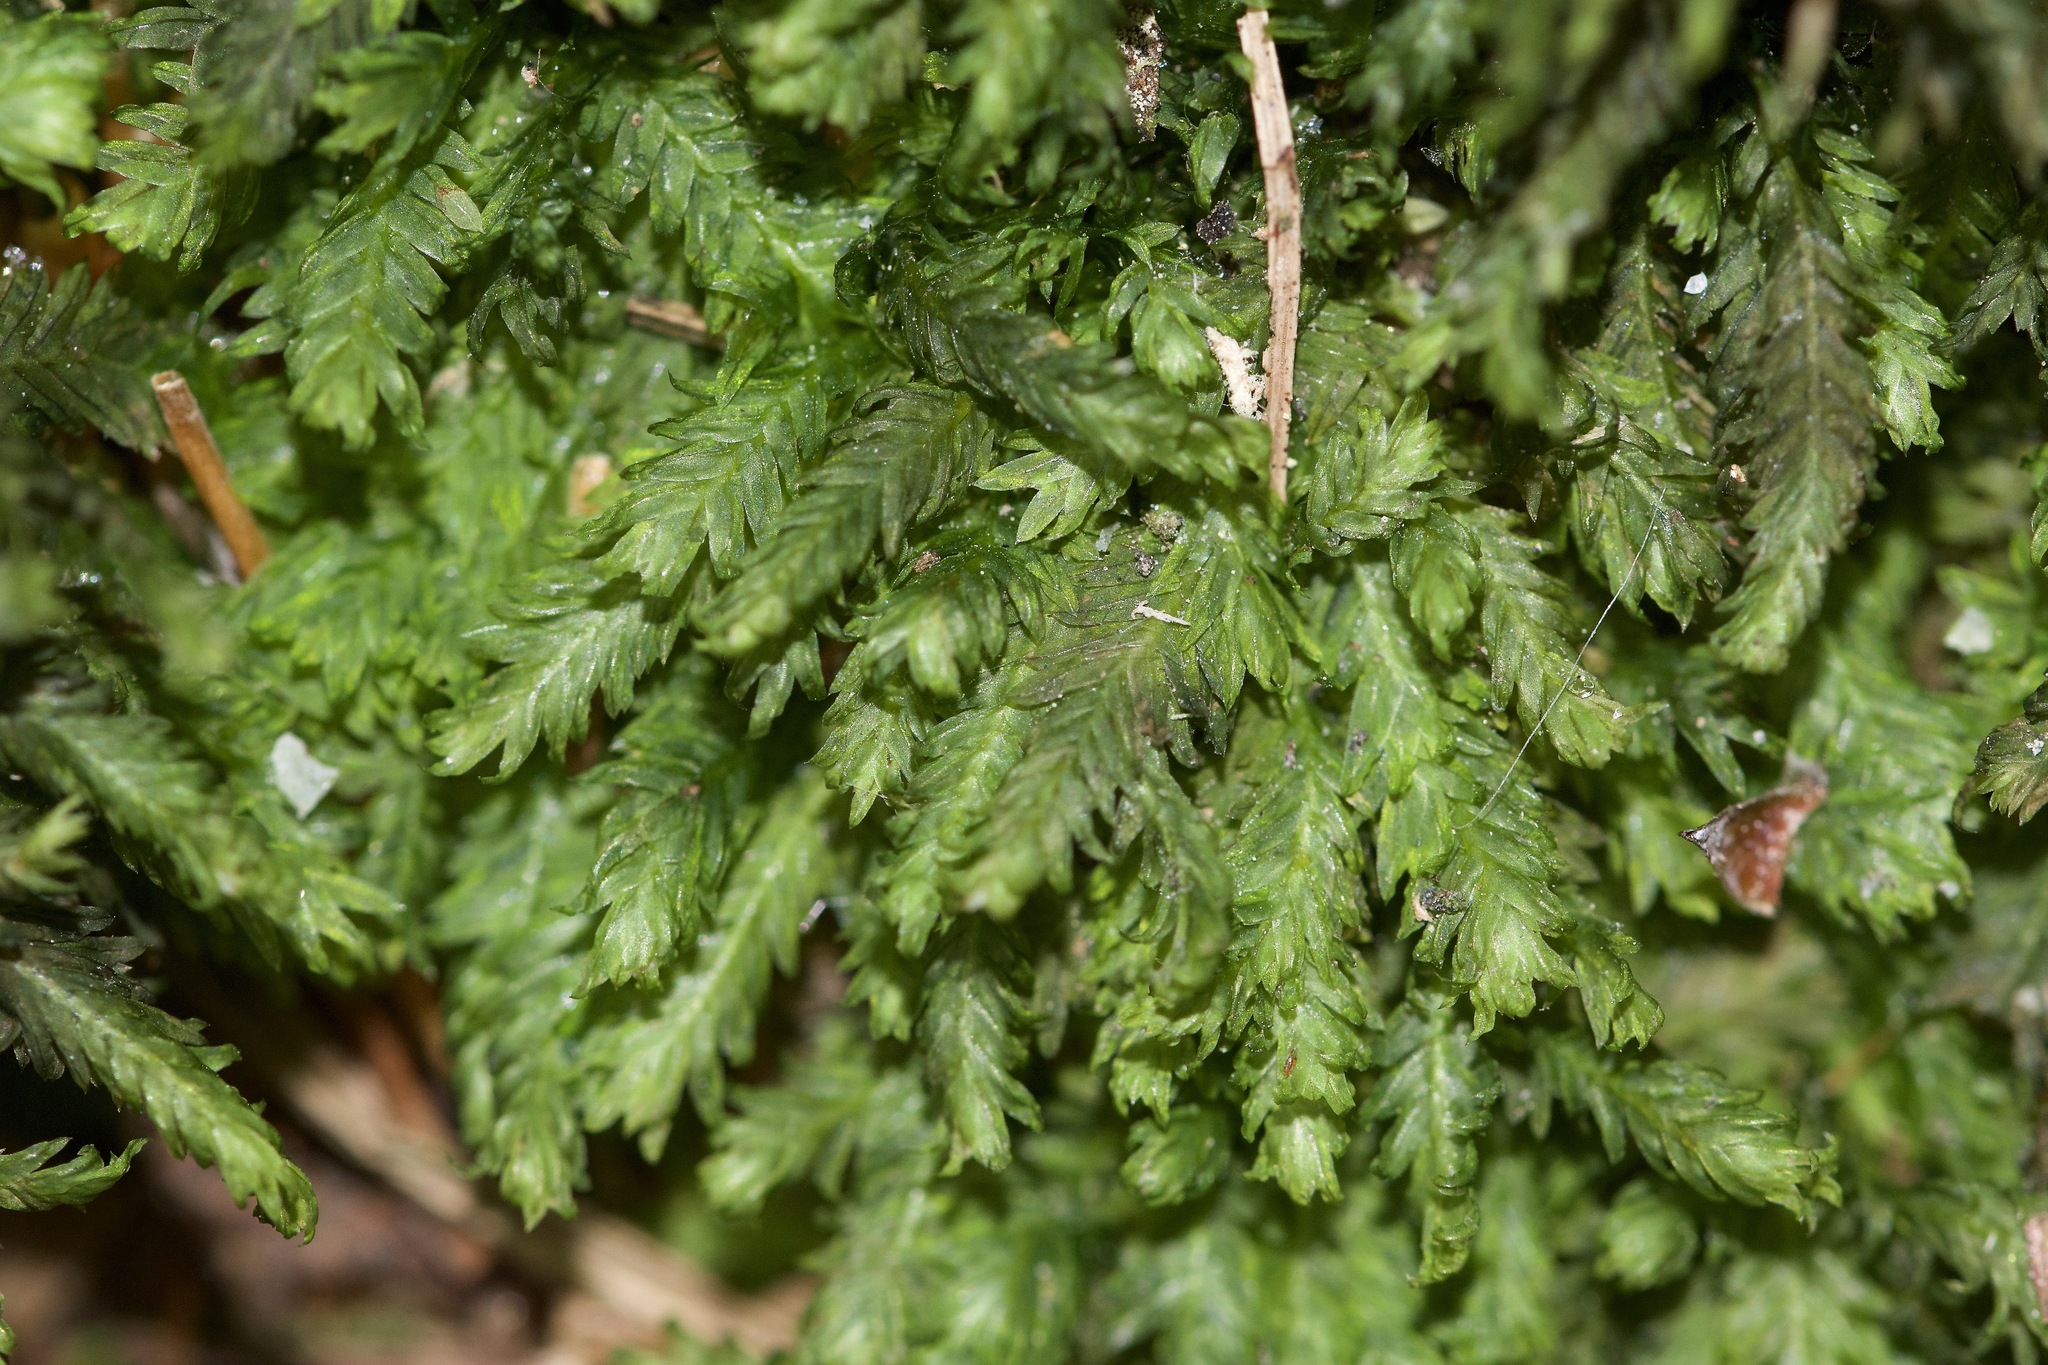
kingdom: Plantae
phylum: Bryophyta
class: Bryopsida
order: Dicranales
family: Fissidentaceae
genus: Fissidens
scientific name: Fissidens taxifolius
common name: Yew-leaved pocket moss
